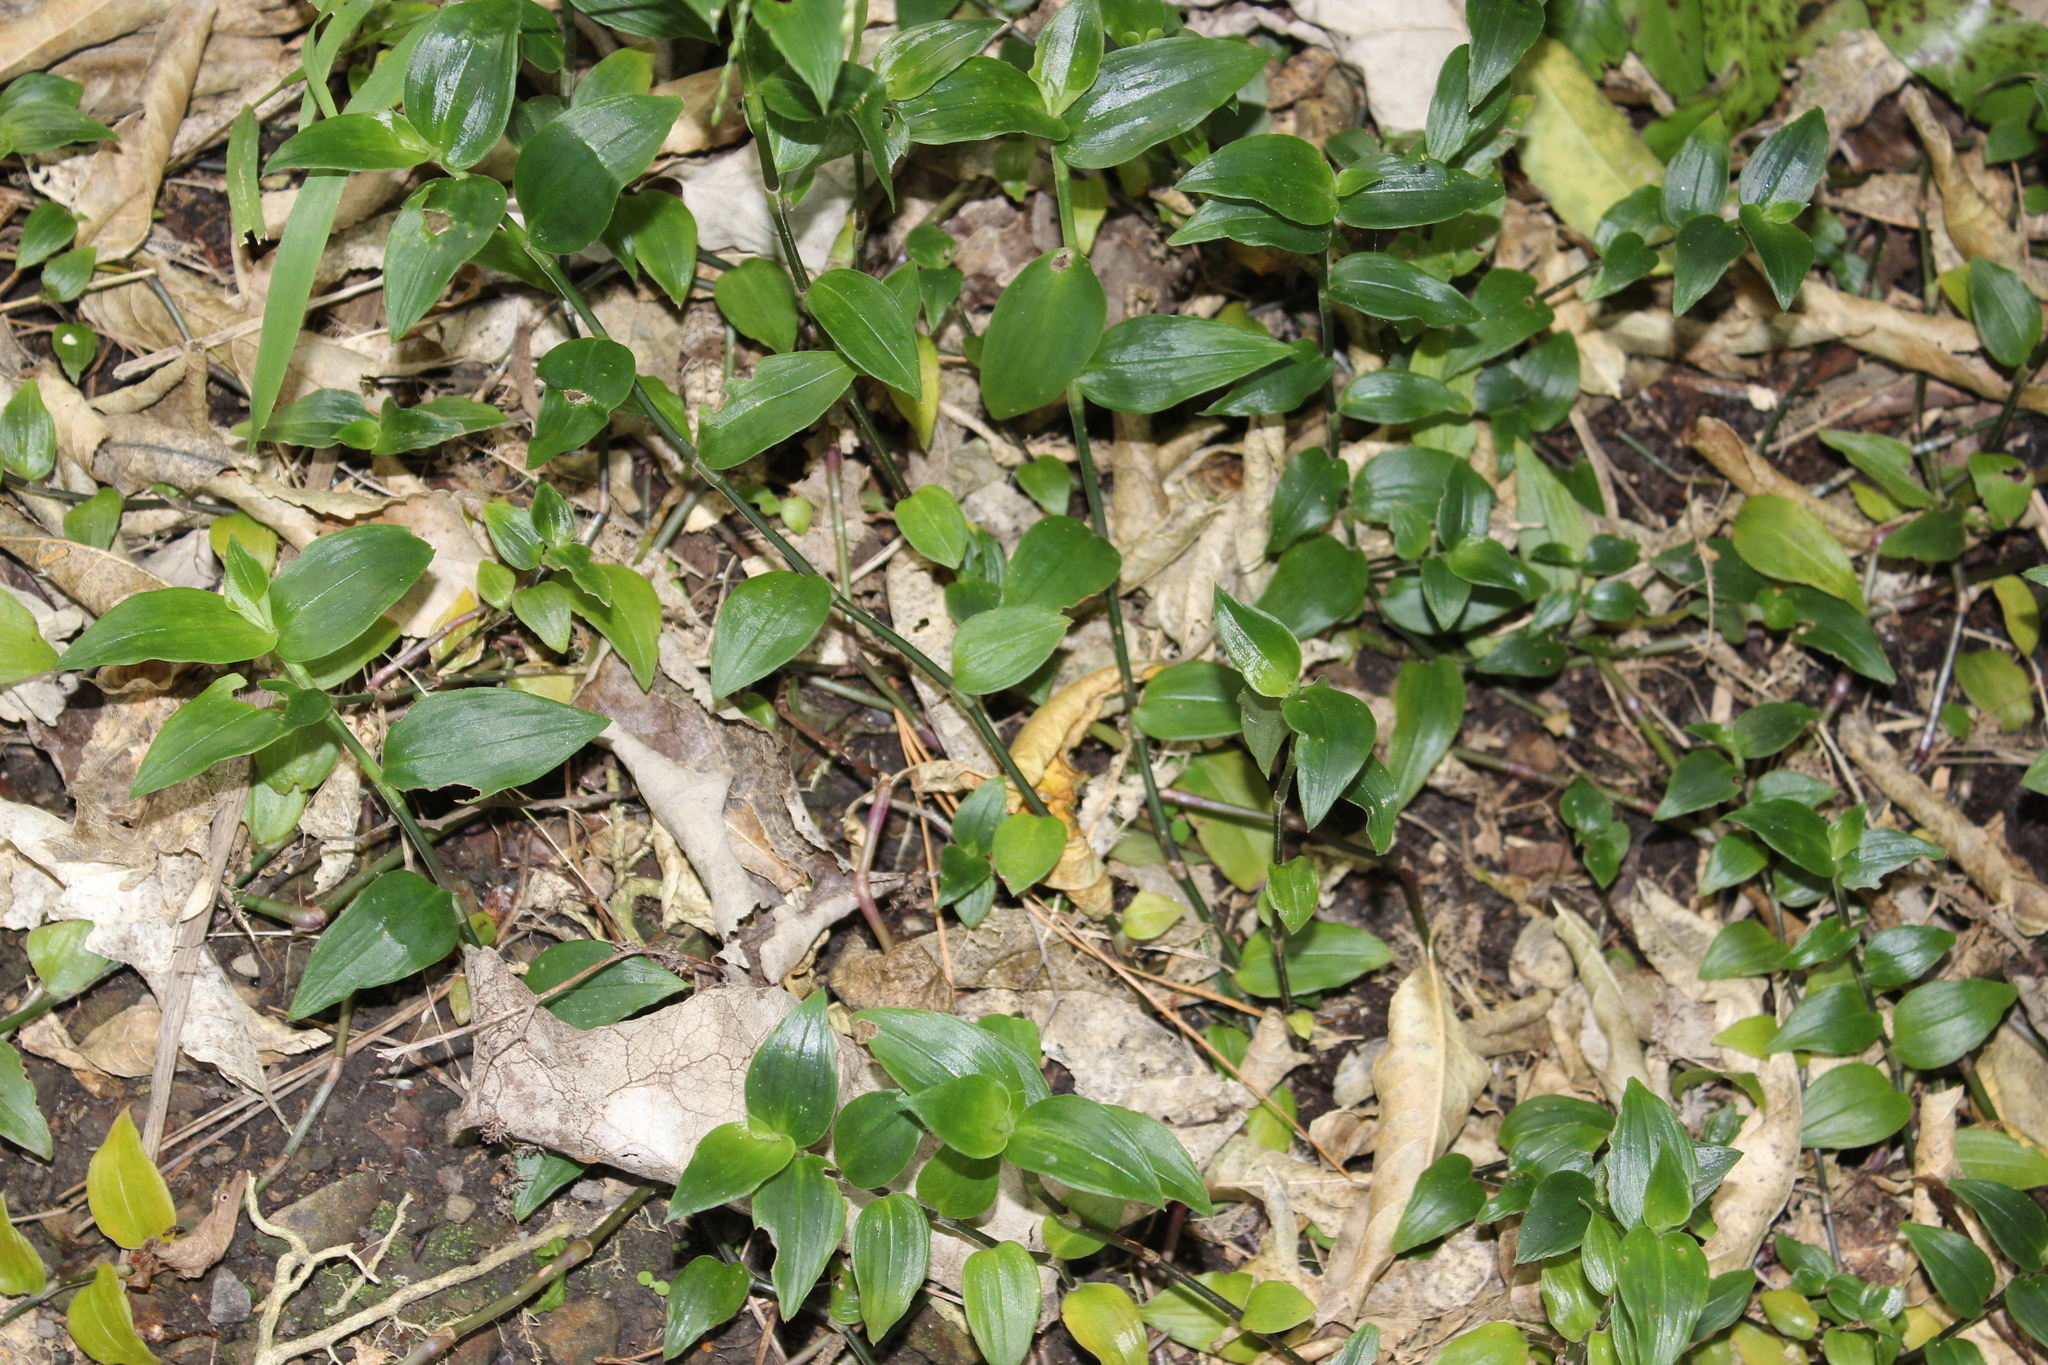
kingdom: Plantae
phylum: Tracheophyta
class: Liliopsida
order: Commelinales
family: Commelinaceae
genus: Tradescantia
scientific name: Tradescantia fluminensis
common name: Wandering-jew
